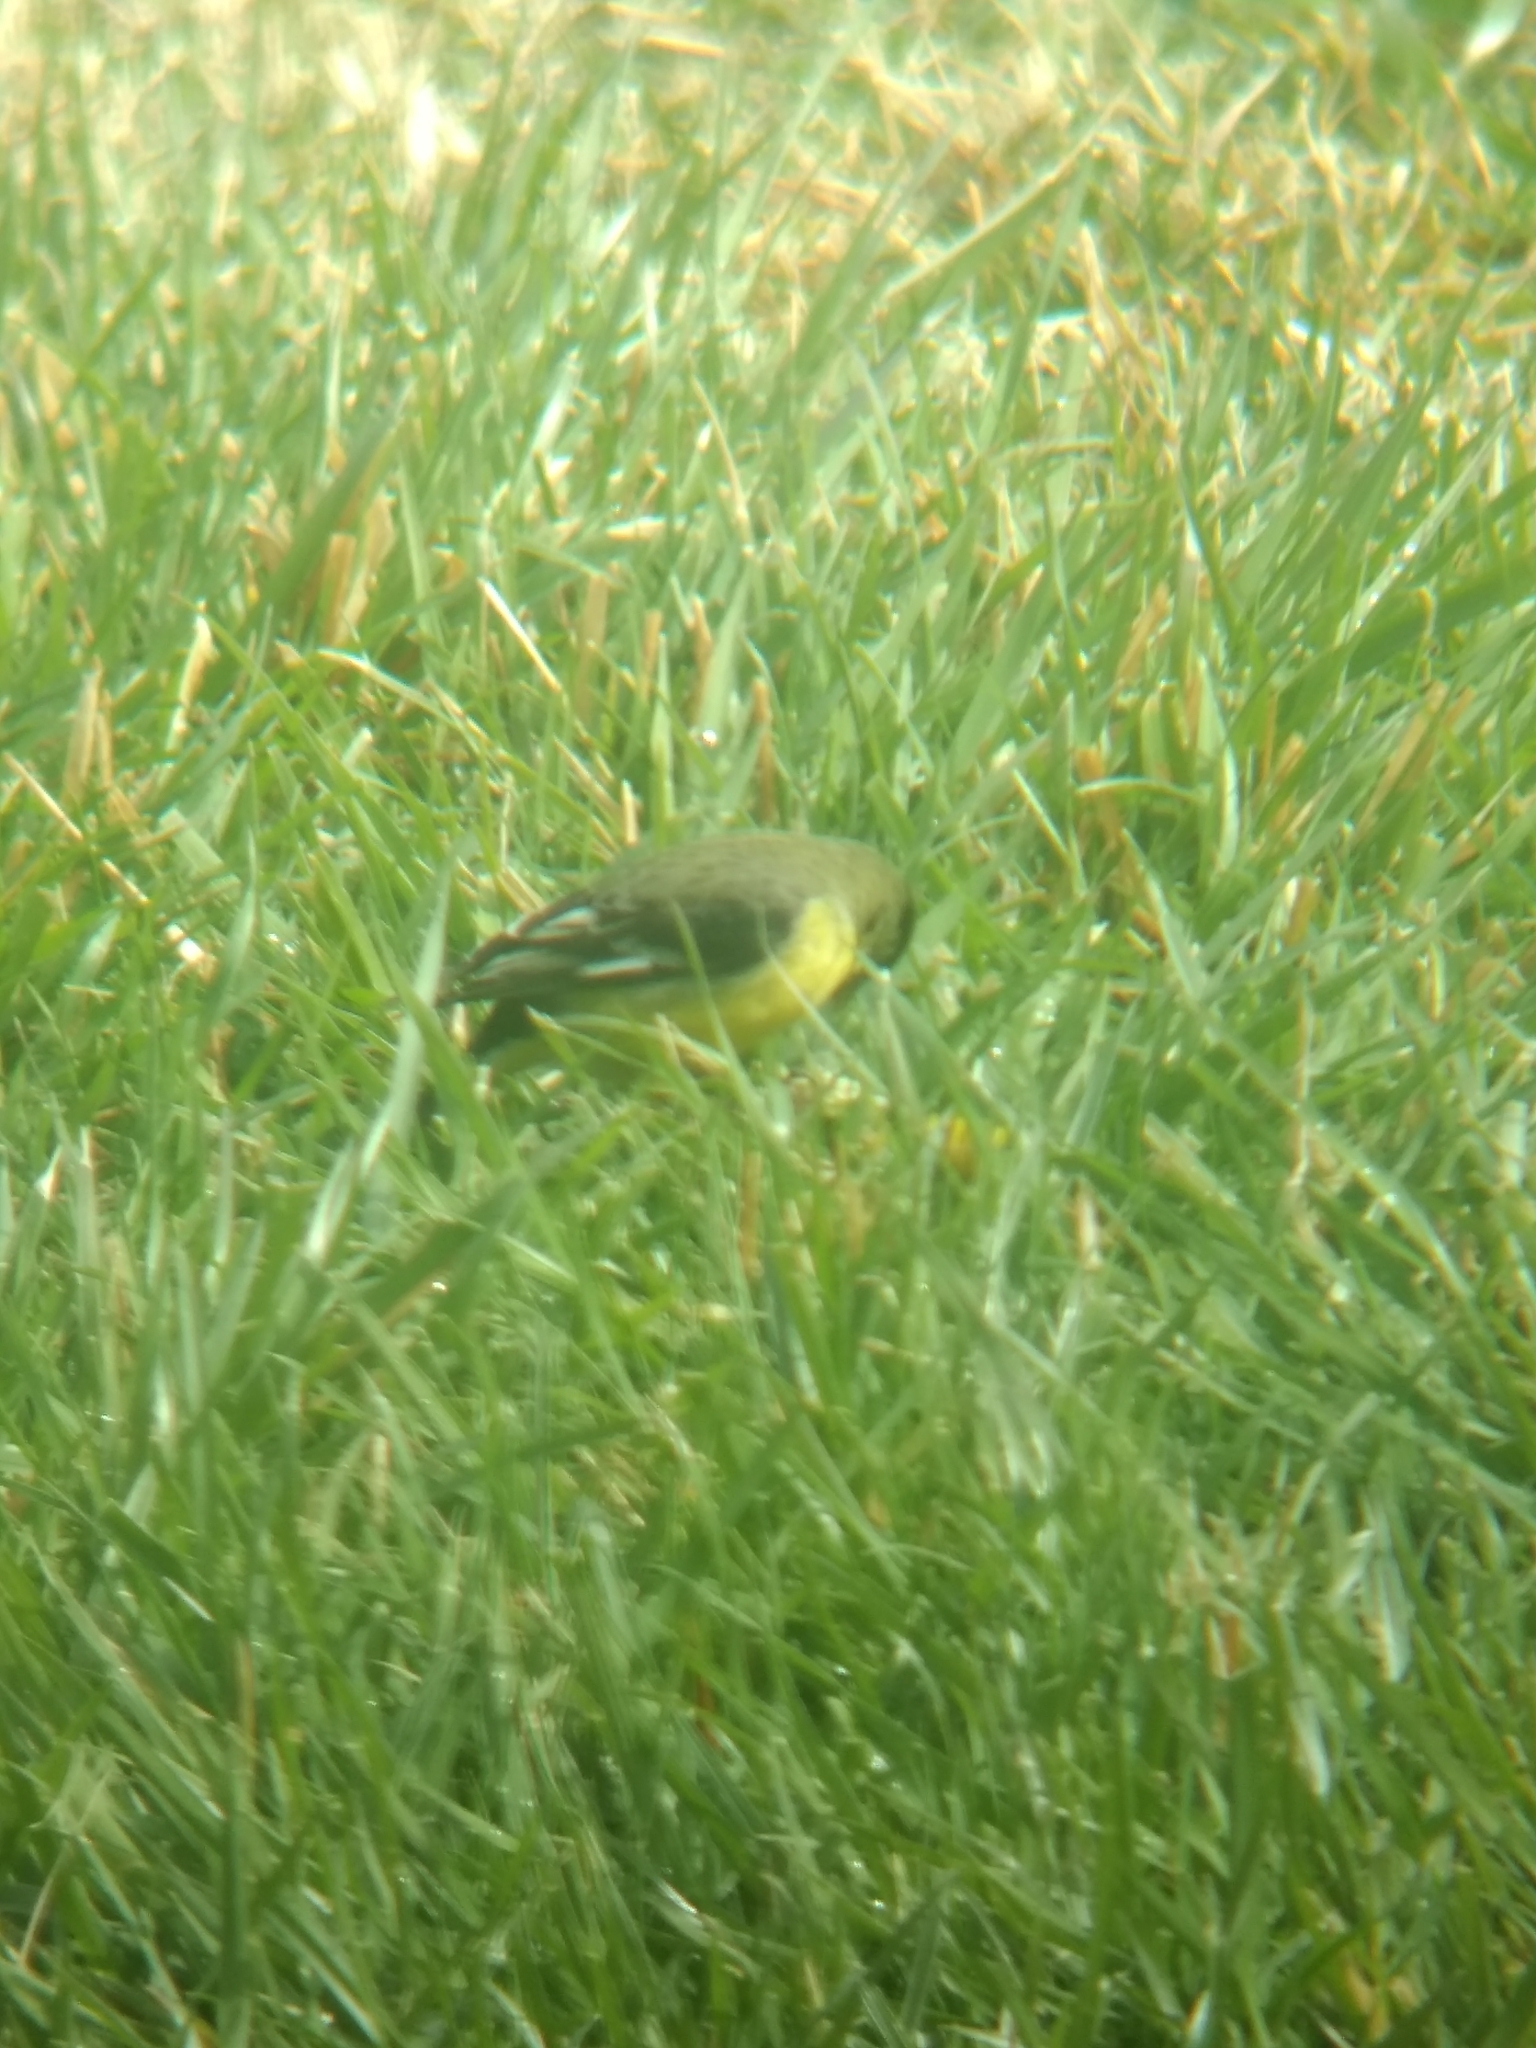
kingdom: Animalia
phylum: Chordata
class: Aves
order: Passeriformes
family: Fringillidae
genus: Spinus
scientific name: Spinus psaltria
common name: Lesser goldfinch
